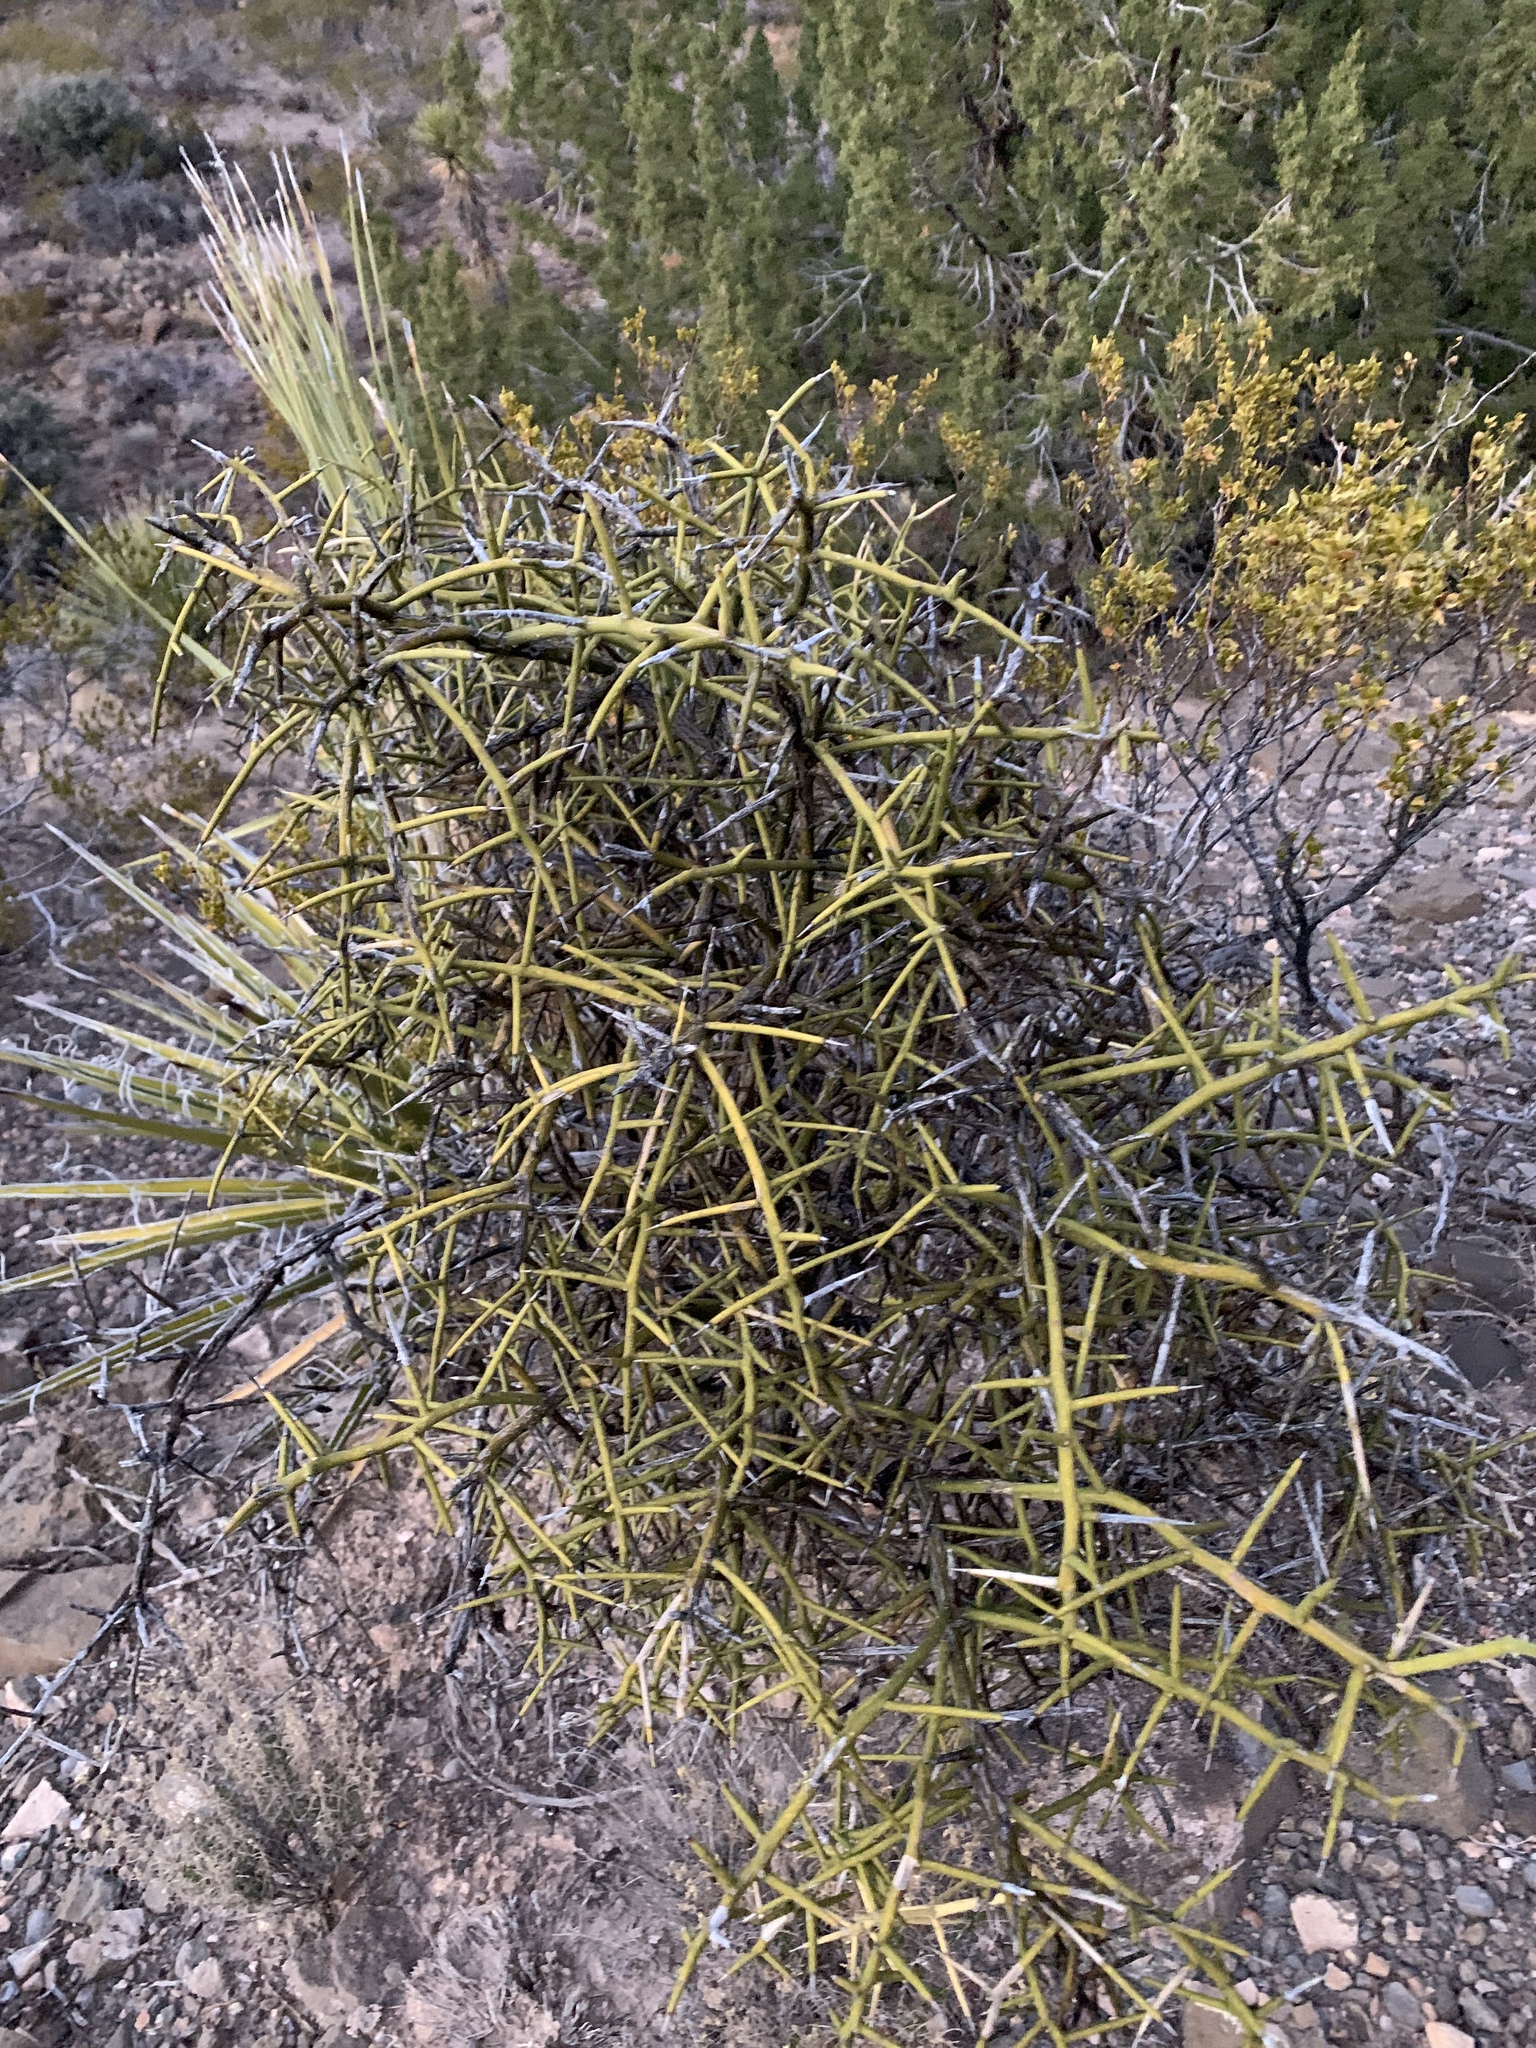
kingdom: Plantae
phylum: Tracheophyta
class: Magnoliopsida
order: Brassicales
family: Koeberliniaceae
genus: Koeberlinia
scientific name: Koeberlinia spinosa
